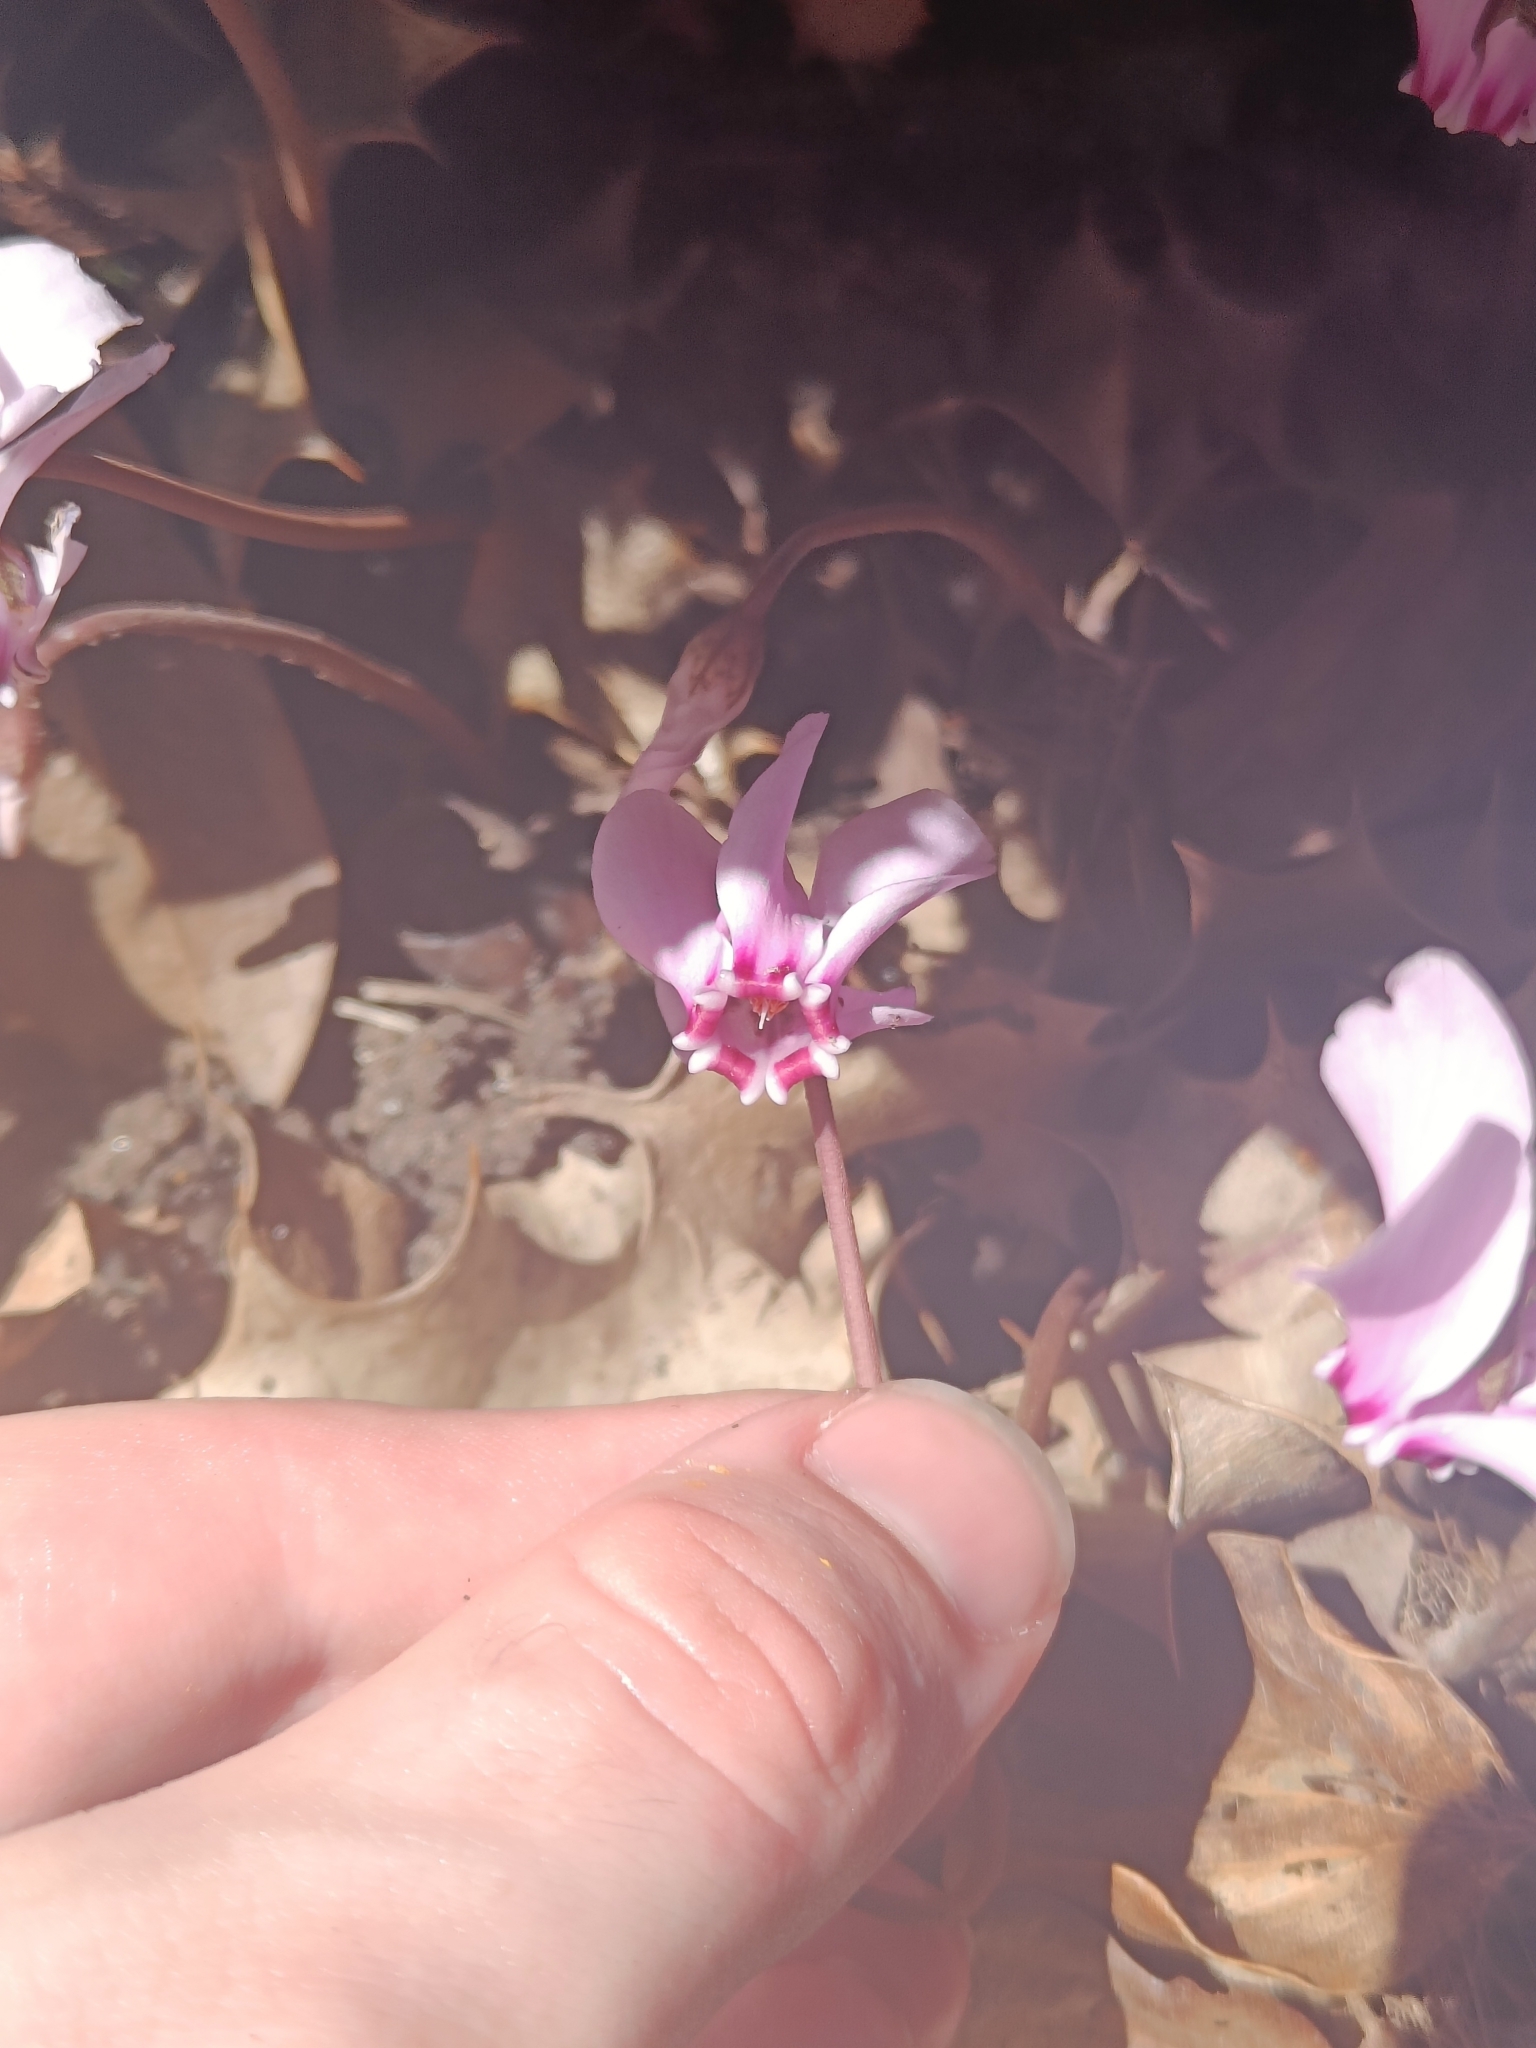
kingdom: Plantae
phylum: Tracheophyta
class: Magnoliopsida
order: Ericales
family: Primulaceae
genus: Cyclamen
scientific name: Cyclamen hederifolium
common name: Sowbread
